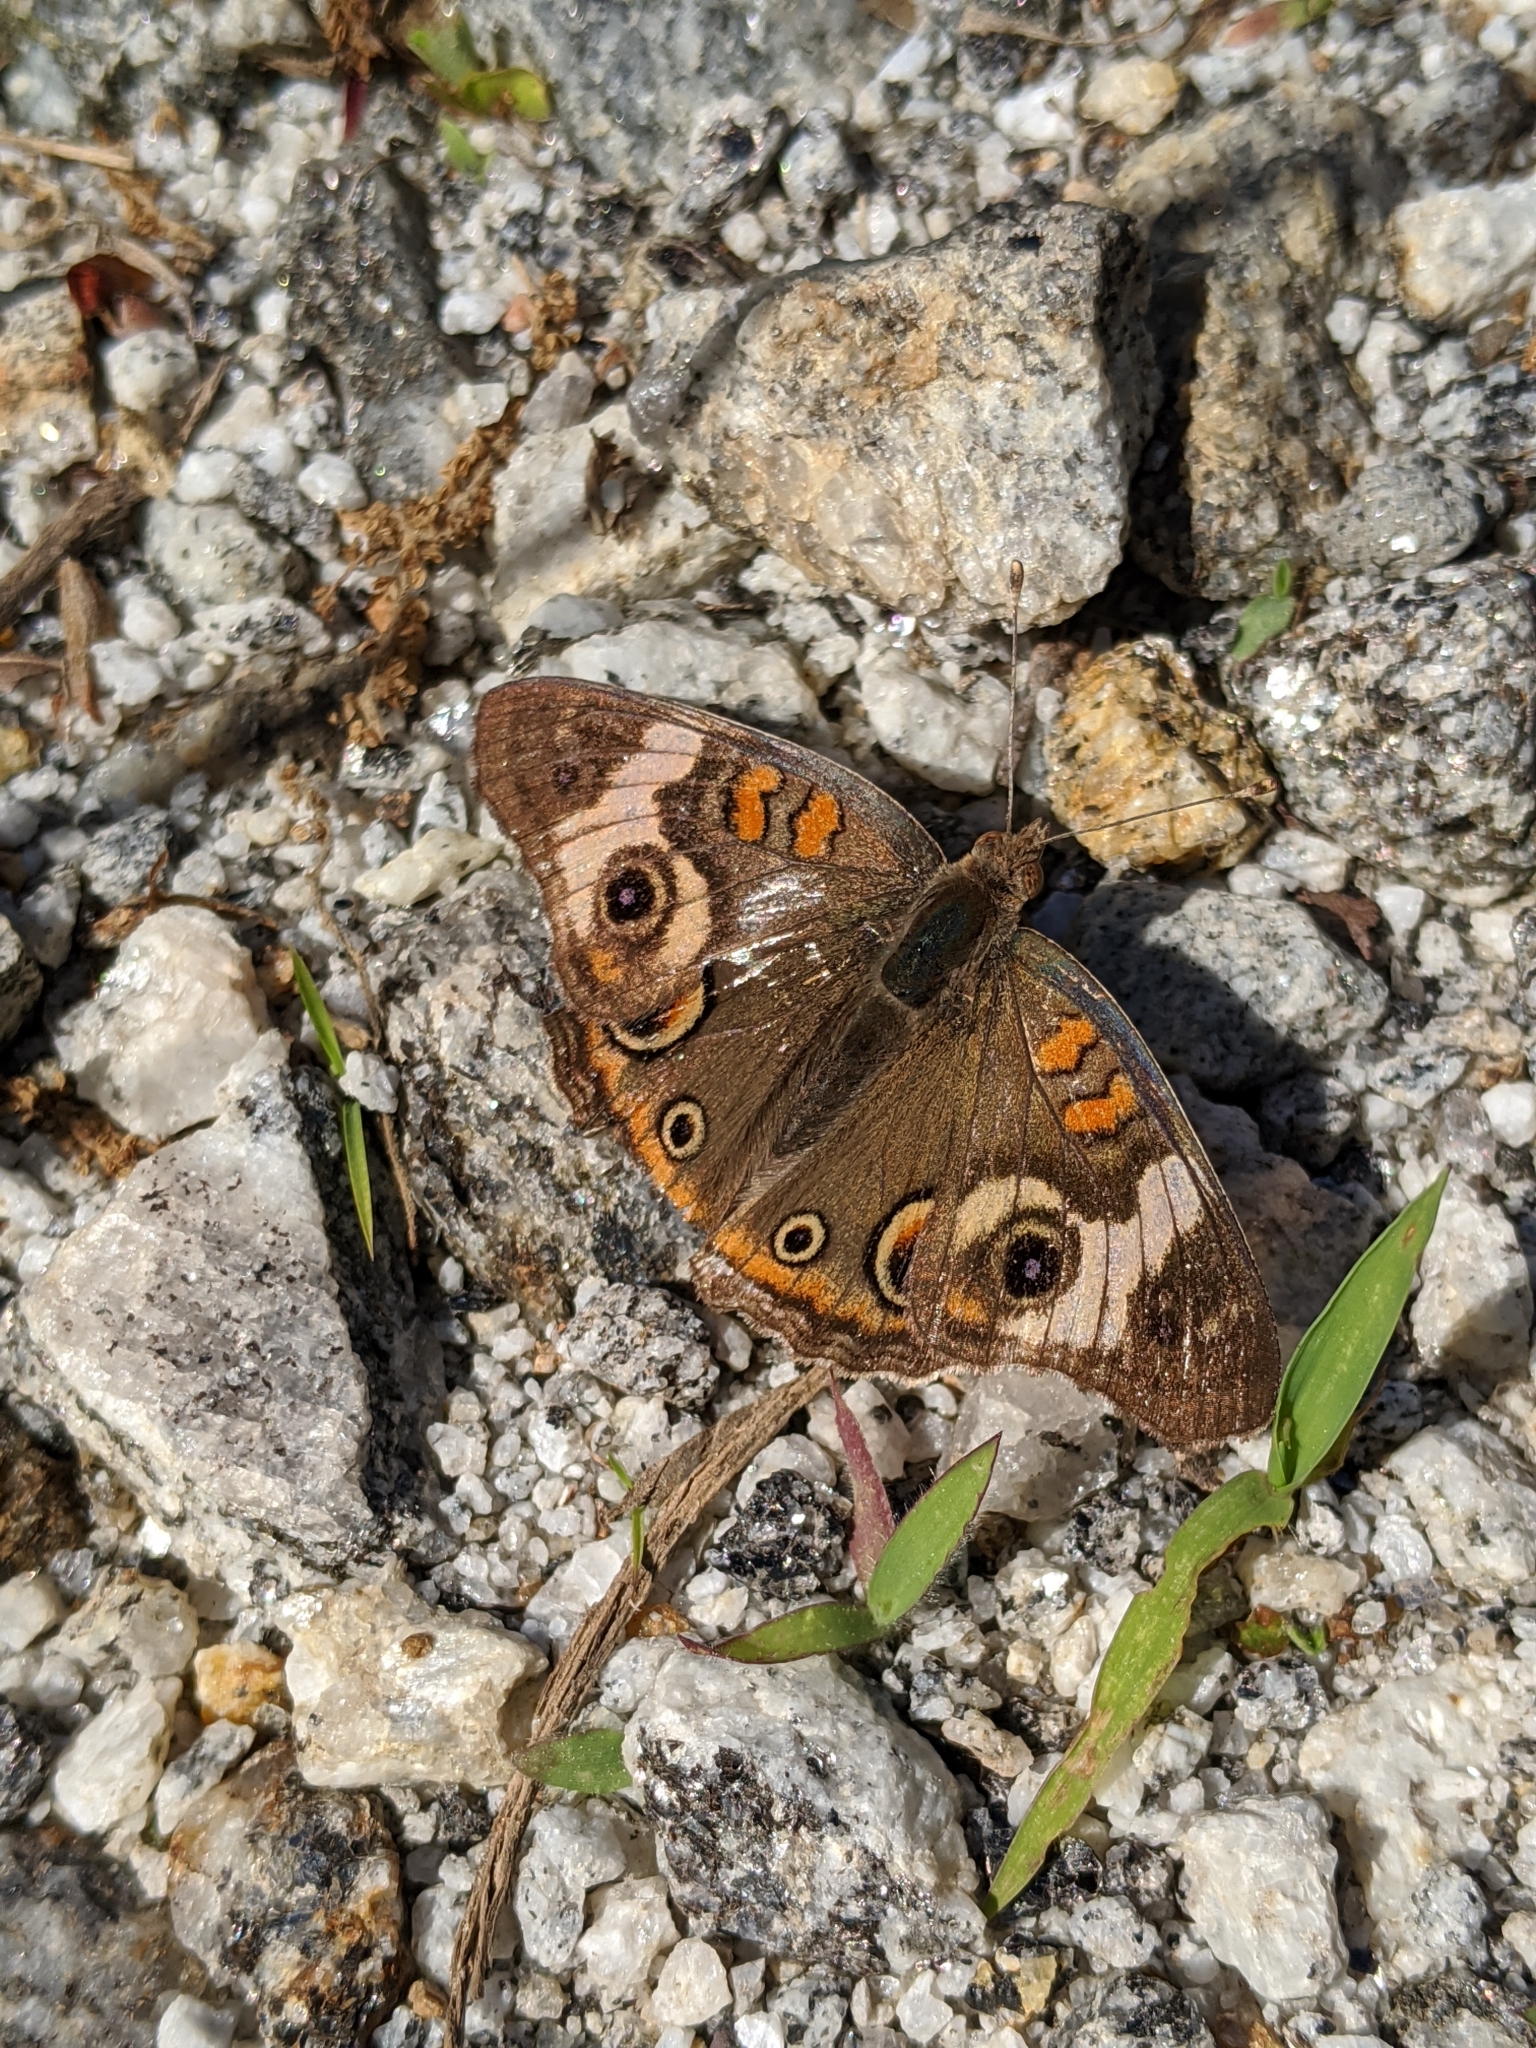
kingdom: Animalia
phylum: Arthropoda
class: Insecta
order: Lepidoptera
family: Nymphalidae
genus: Junonia
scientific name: Junonia coenia
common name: Common buckeye
